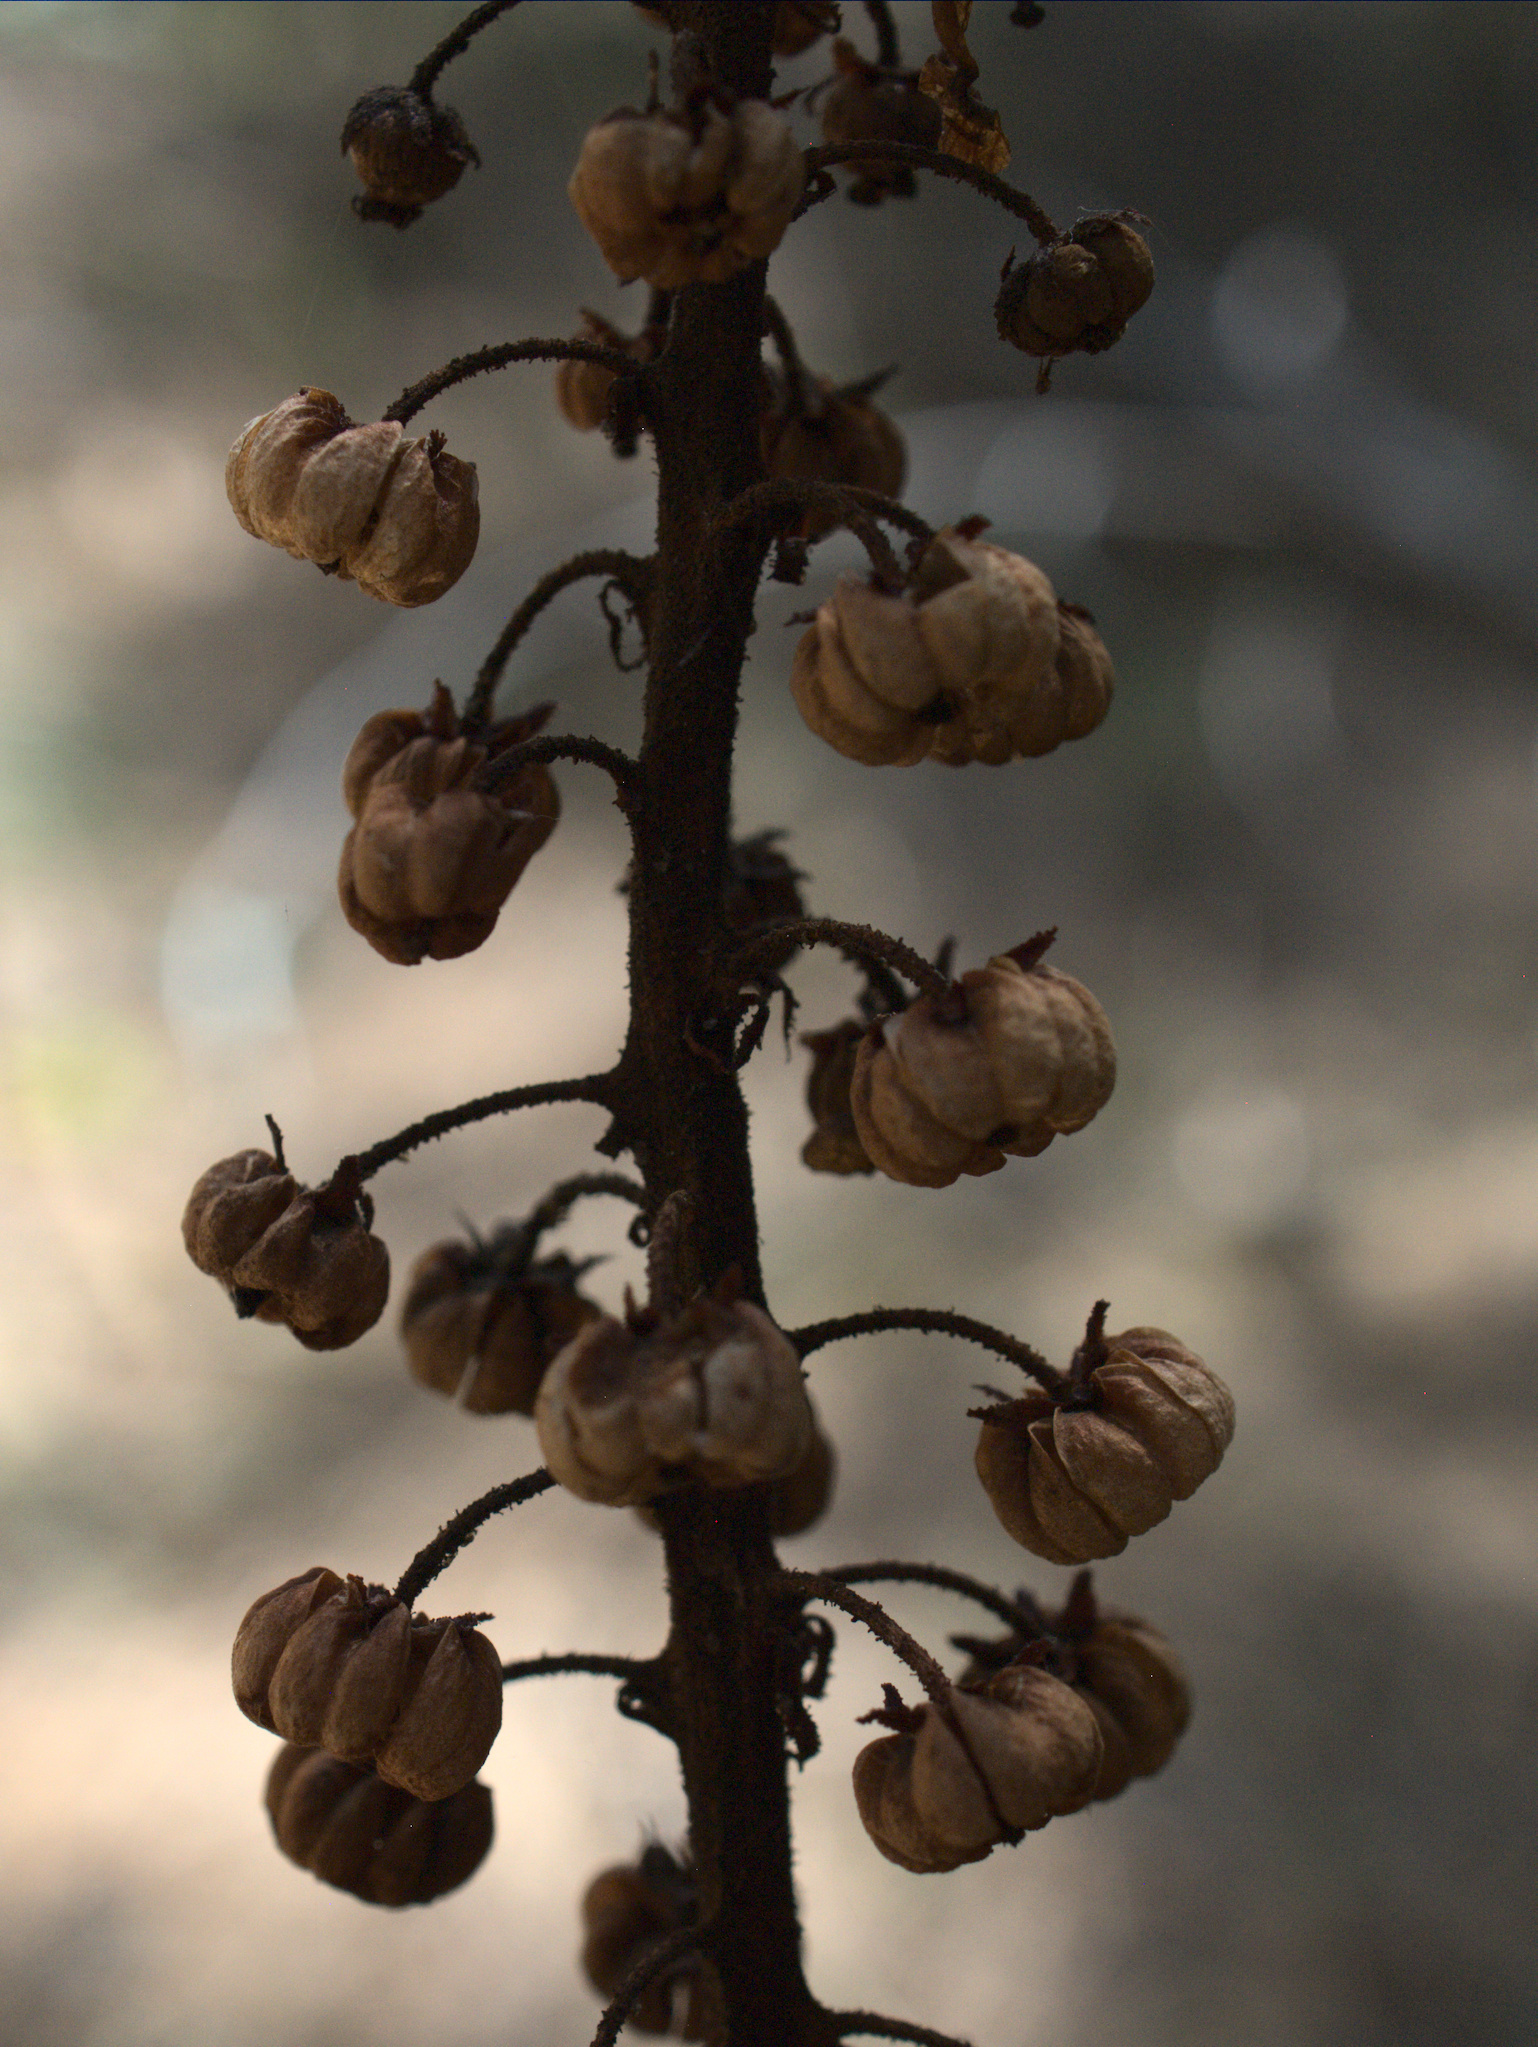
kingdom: Plantae
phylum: Tracheophyta
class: Magnoliopsida
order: Ericales
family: Ericaceae
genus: Pterospora
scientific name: Pterospora andromedea
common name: Giant bird's-nest
